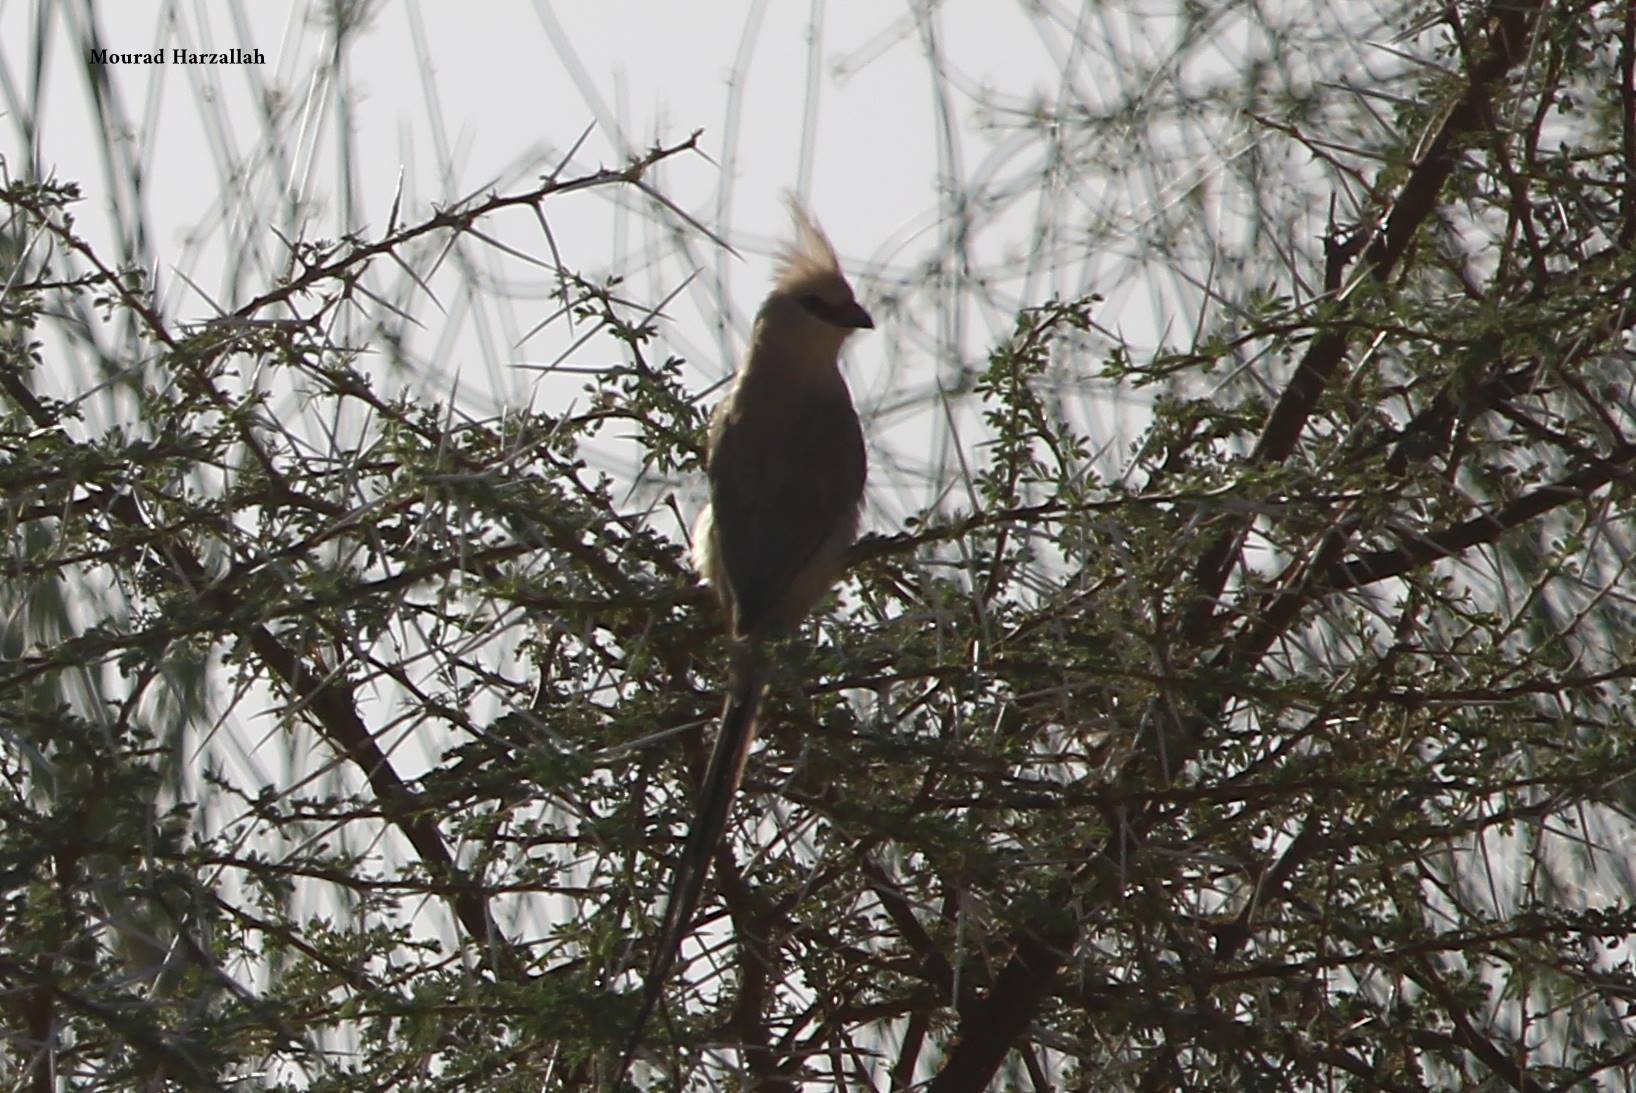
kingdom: Animalia
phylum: Chordata
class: Aves
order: Coliiformes
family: Coliidae
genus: Urocolius
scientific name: Urocolius macrourus
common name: Blue-naped mousebird
